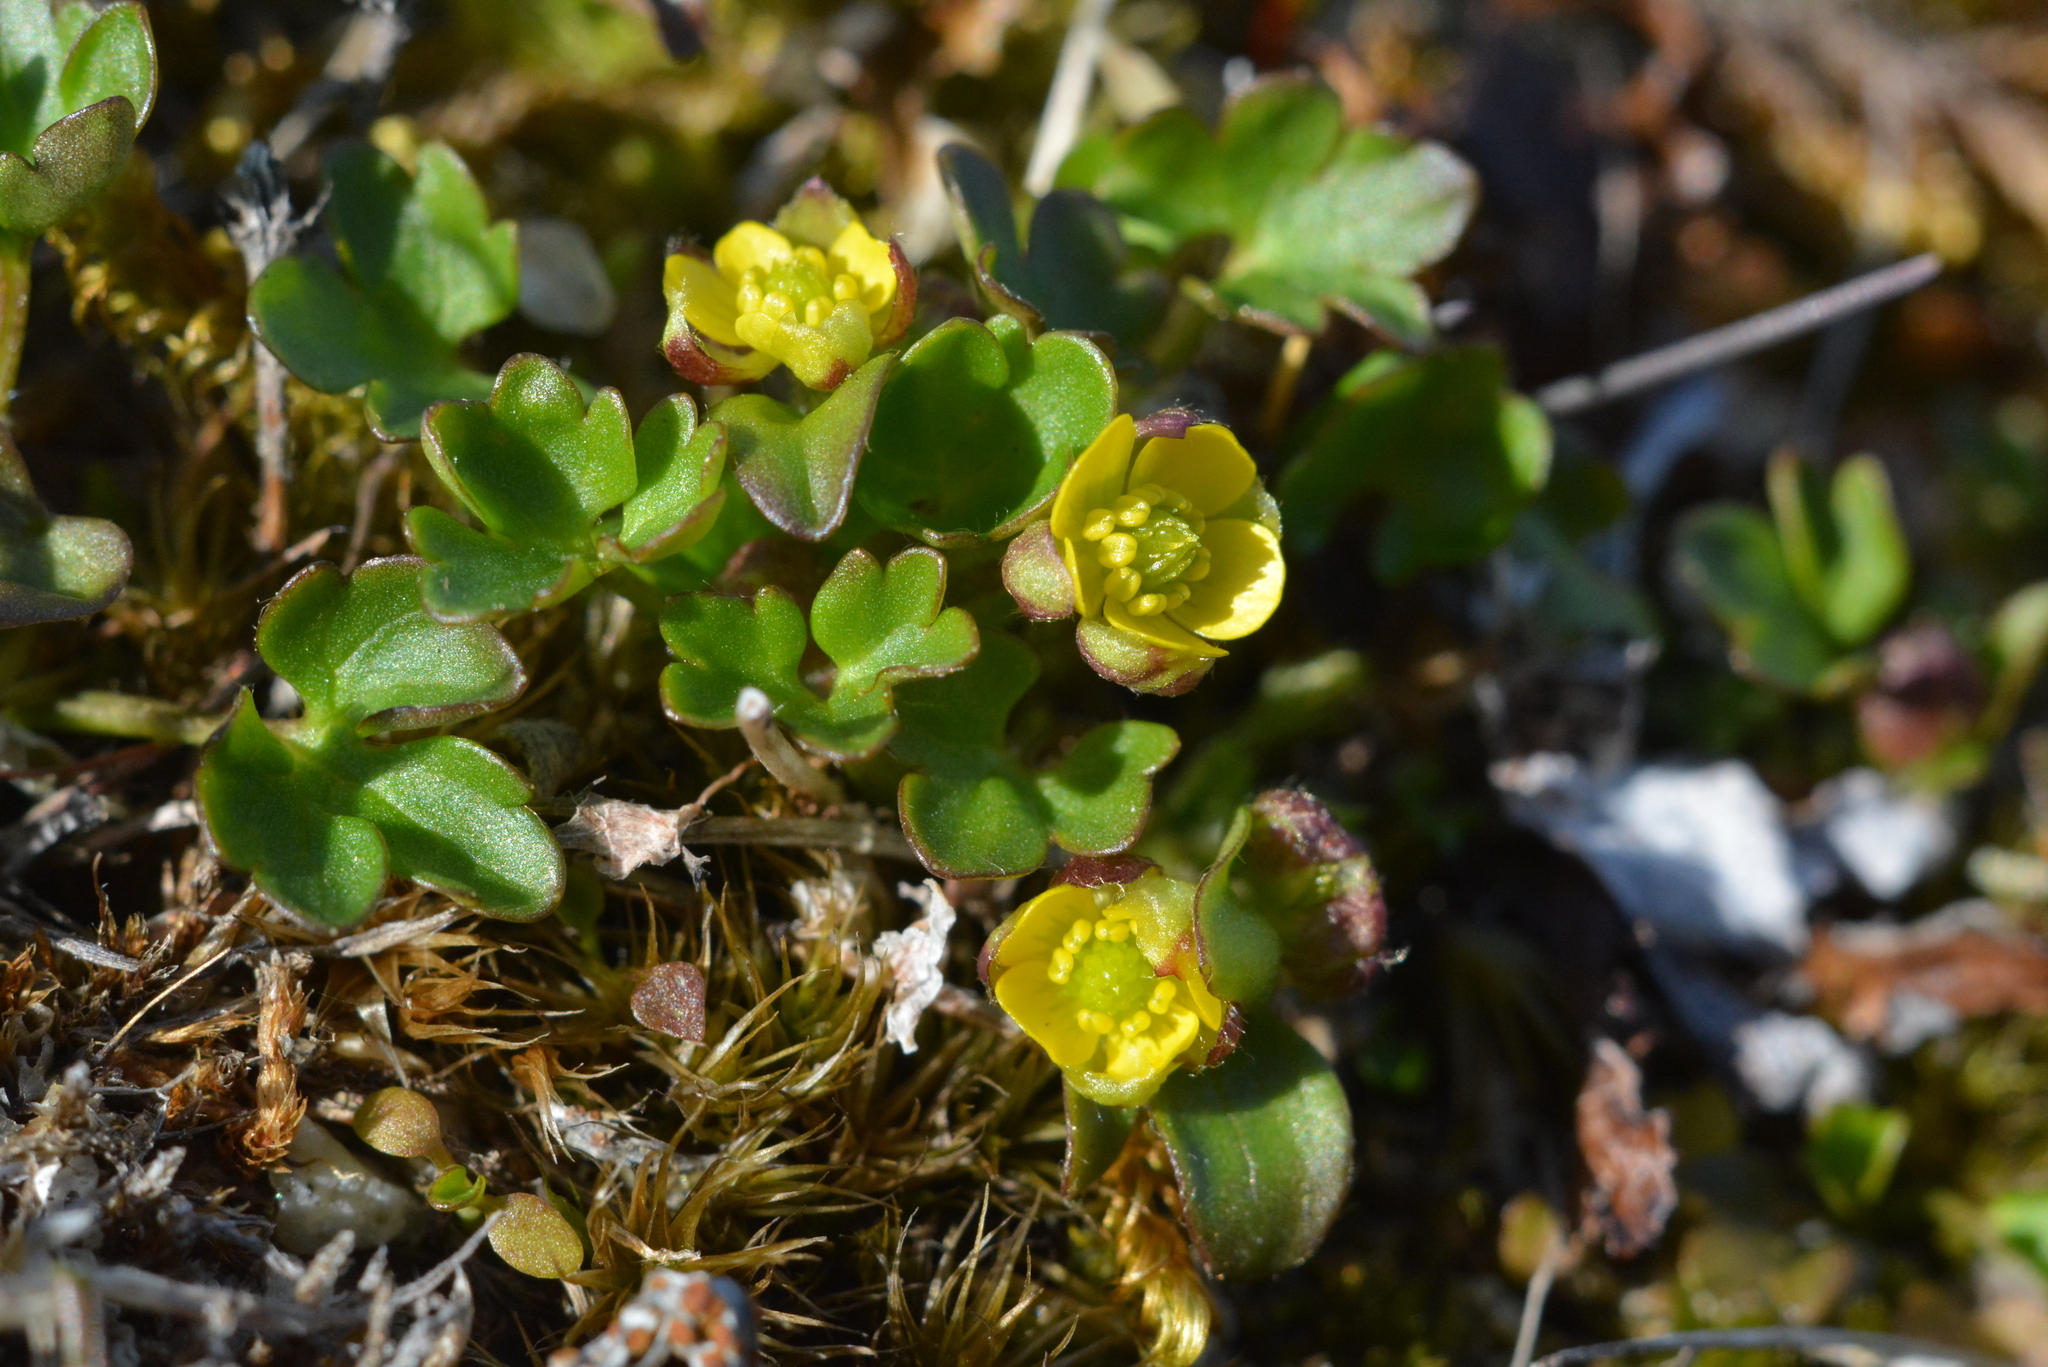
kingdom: Plantae
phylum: Tracheophyta
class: Magnoliopsida
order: Ranunculales
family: Ranunculaceae
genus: Ranunculus
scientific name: Ranunculus pygmaeus
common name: Dwarf buttercup
